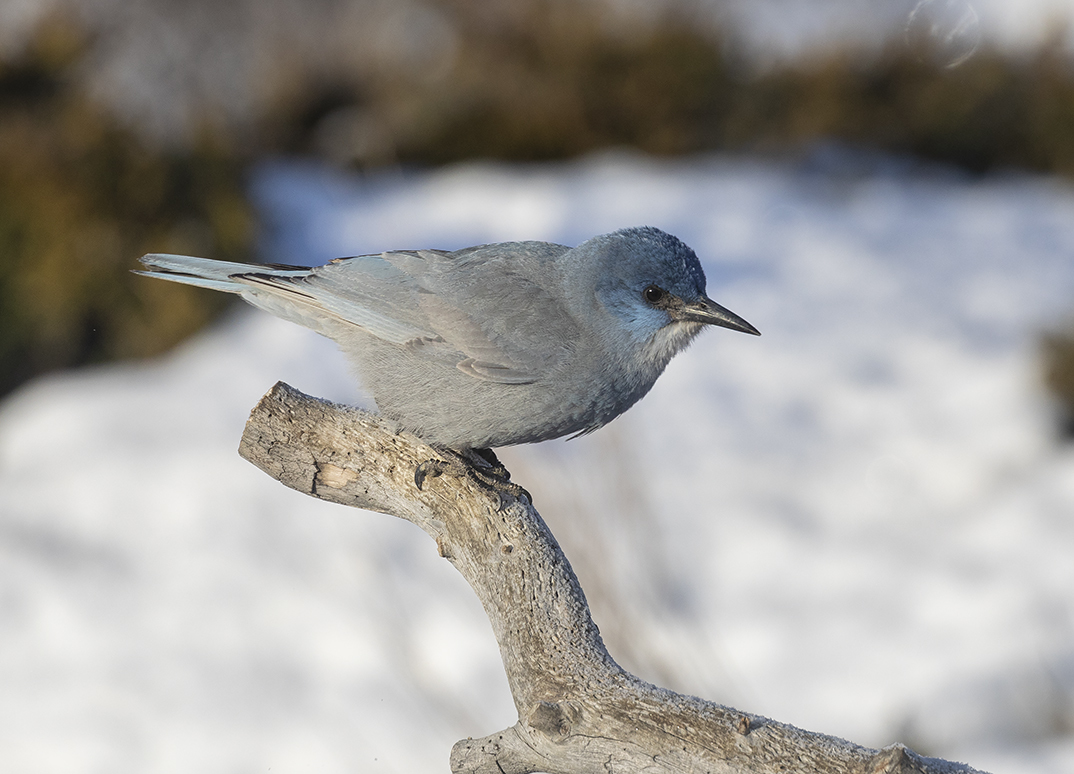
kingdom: Animalia
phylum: Chordata
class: Aves
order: Passeriformes
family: Corvidae
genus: Gymnorhinus
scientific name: Gymnorhinus cyanocephalus
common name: Pinyon jay
